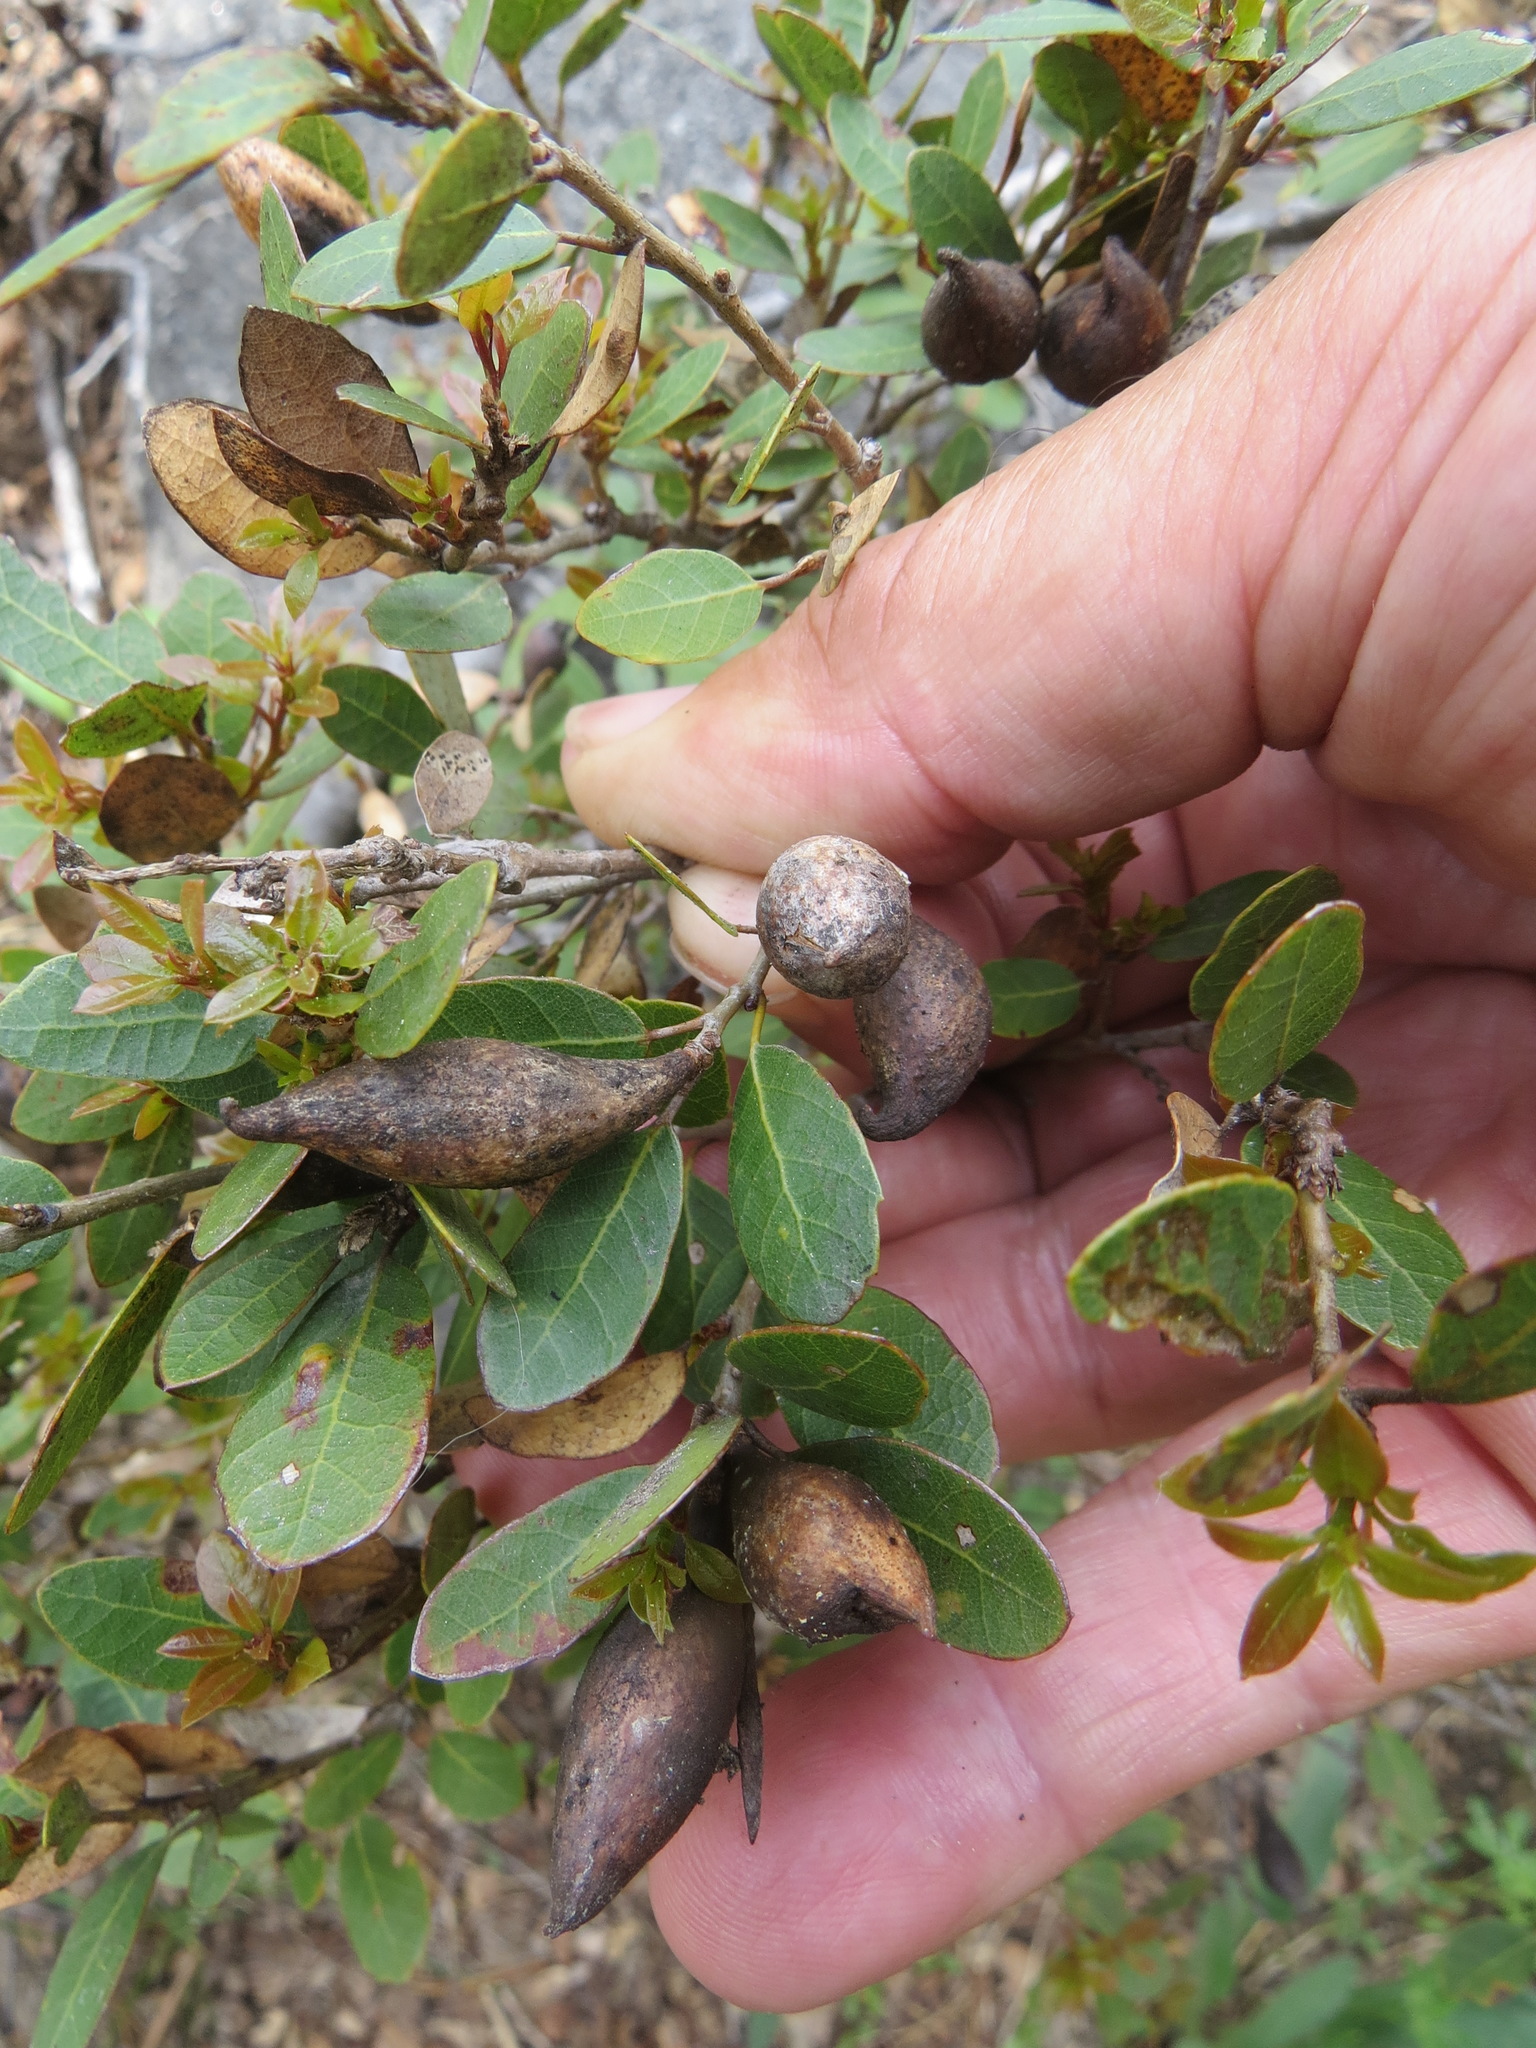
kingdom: Animalia
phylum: Arthropoda
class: Insecta
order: Hymenoptera
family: Cynipidae
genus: Heteroecus
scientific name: Heteroecus pacificus
